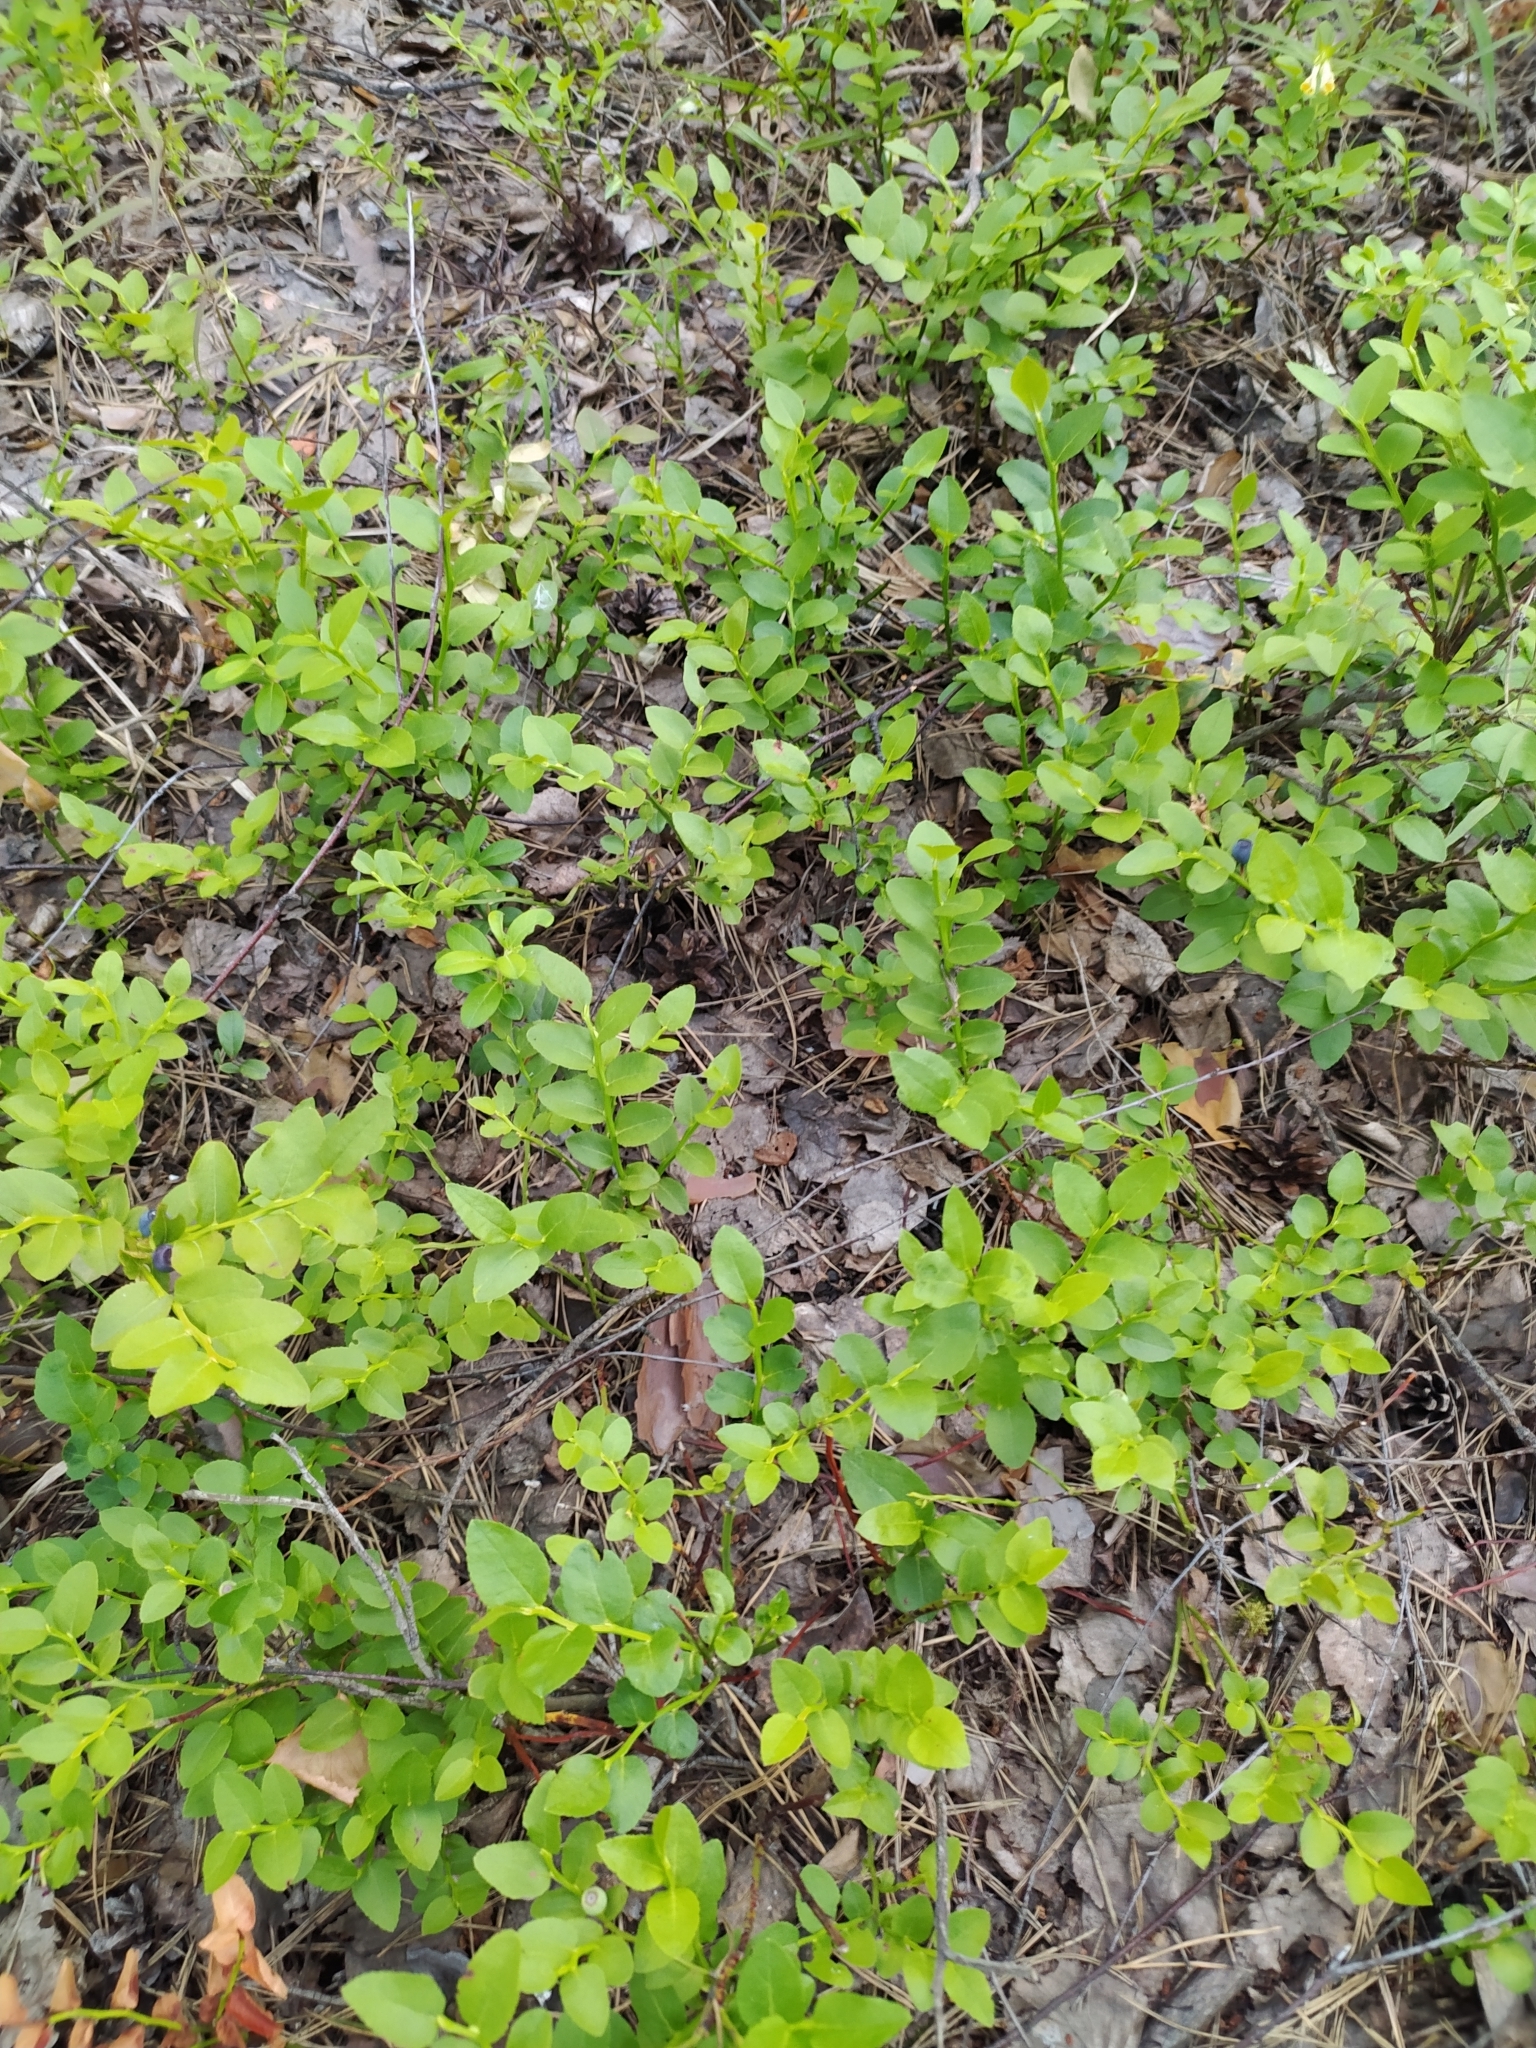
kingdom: Plantae
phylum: Tracheophyta
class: Magnoliopsida
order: Ericales
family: Ericaceae
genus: Vaccinium
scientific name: Vaccinium myrtillus
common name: Bilberry
